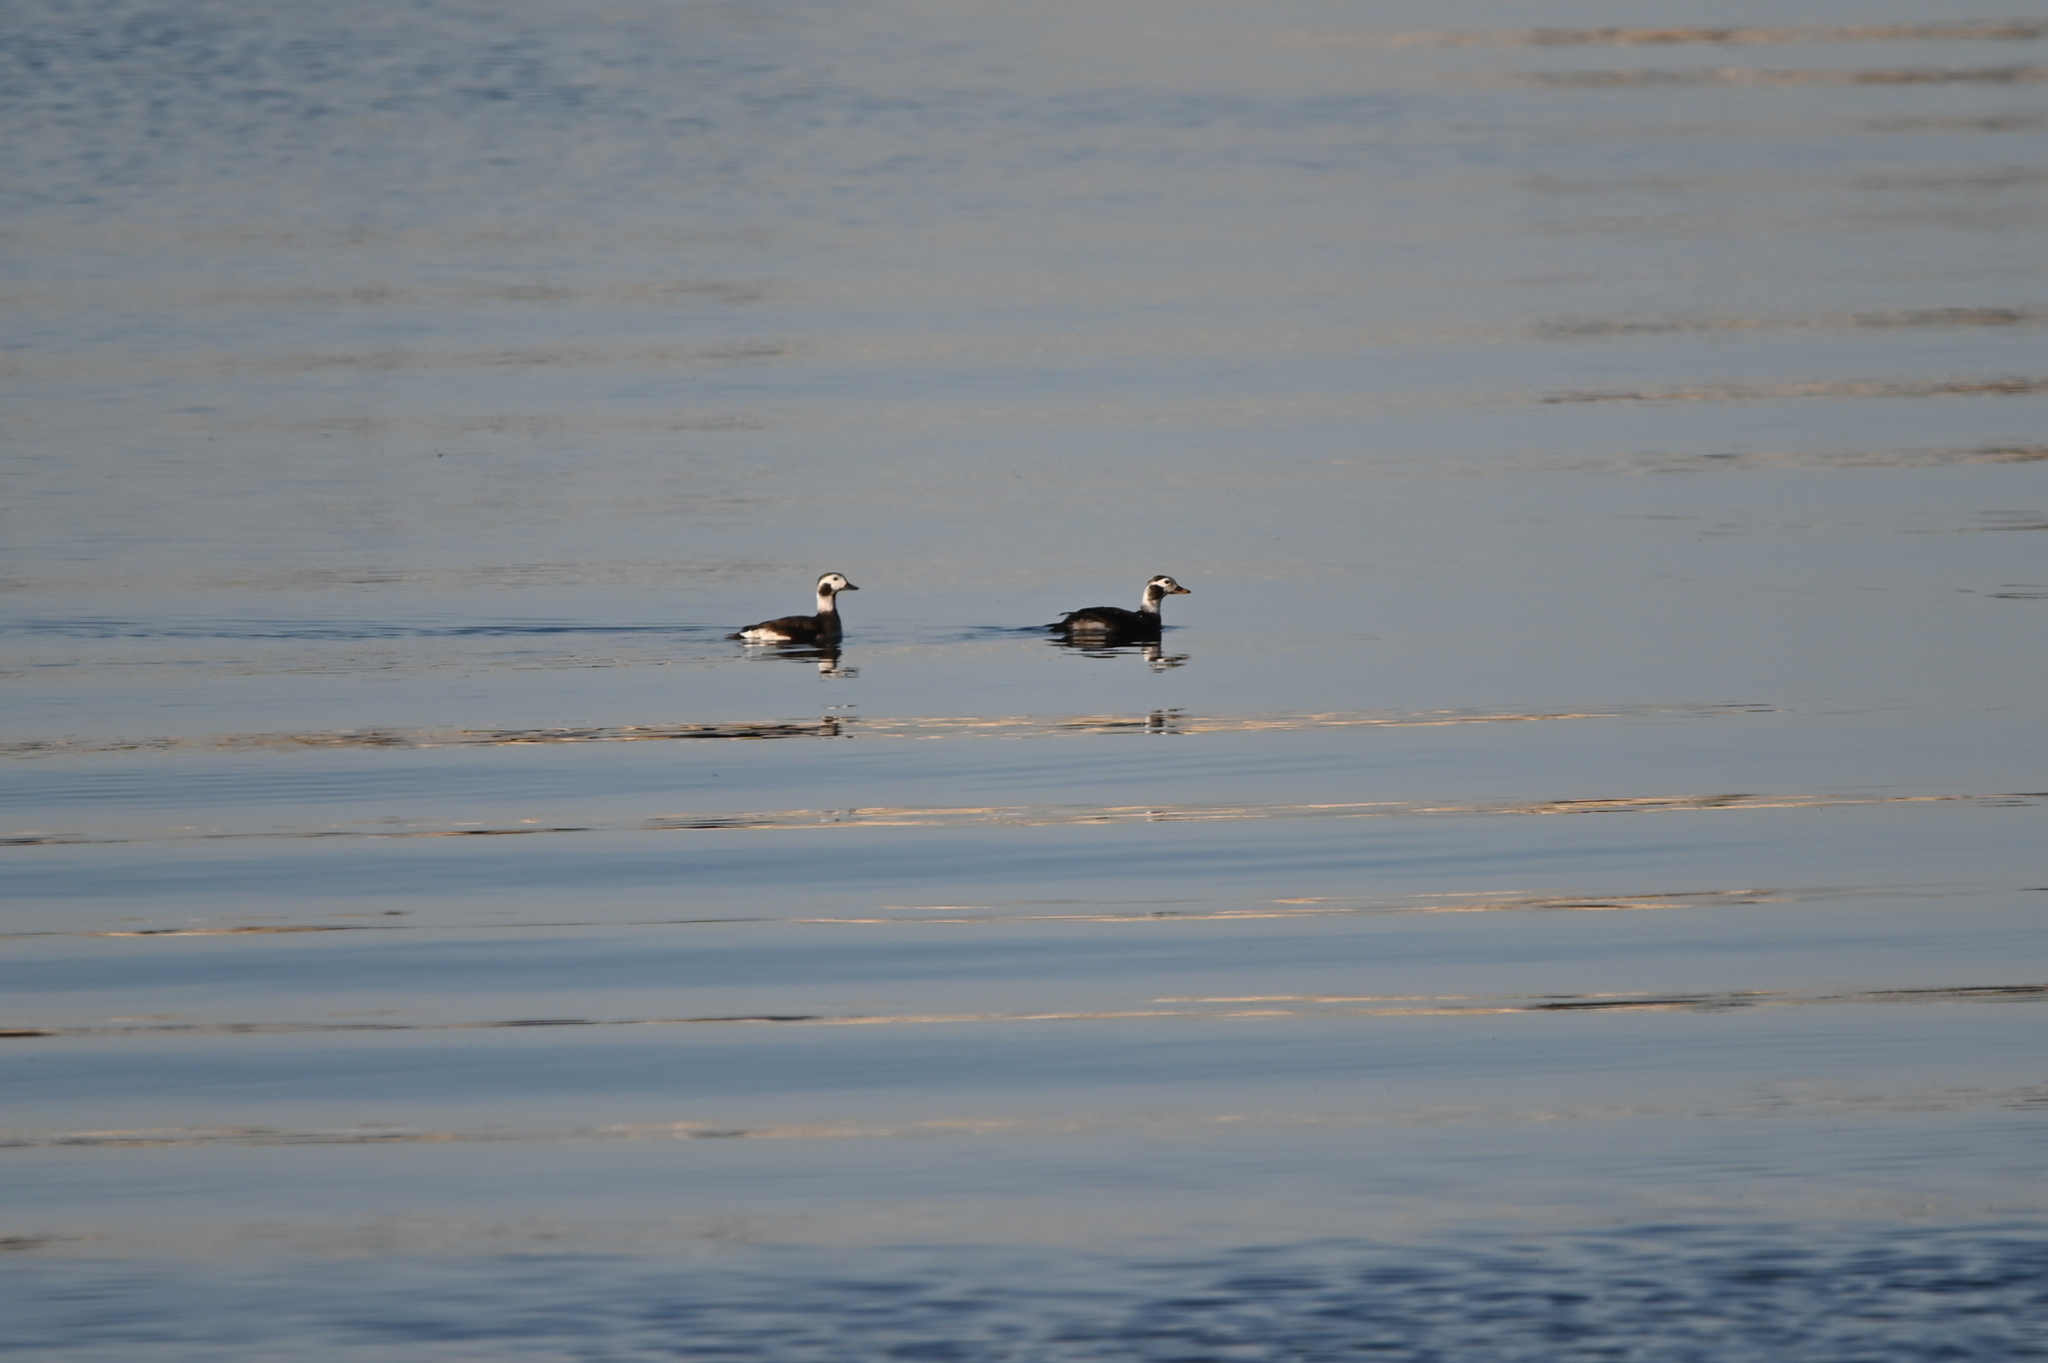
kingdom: Animalia
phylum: Chordata
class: Aves
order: Anseriformes
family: Anatidae
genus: Clangula
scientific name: Clangula hyemalis
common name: Long-tailed duck
